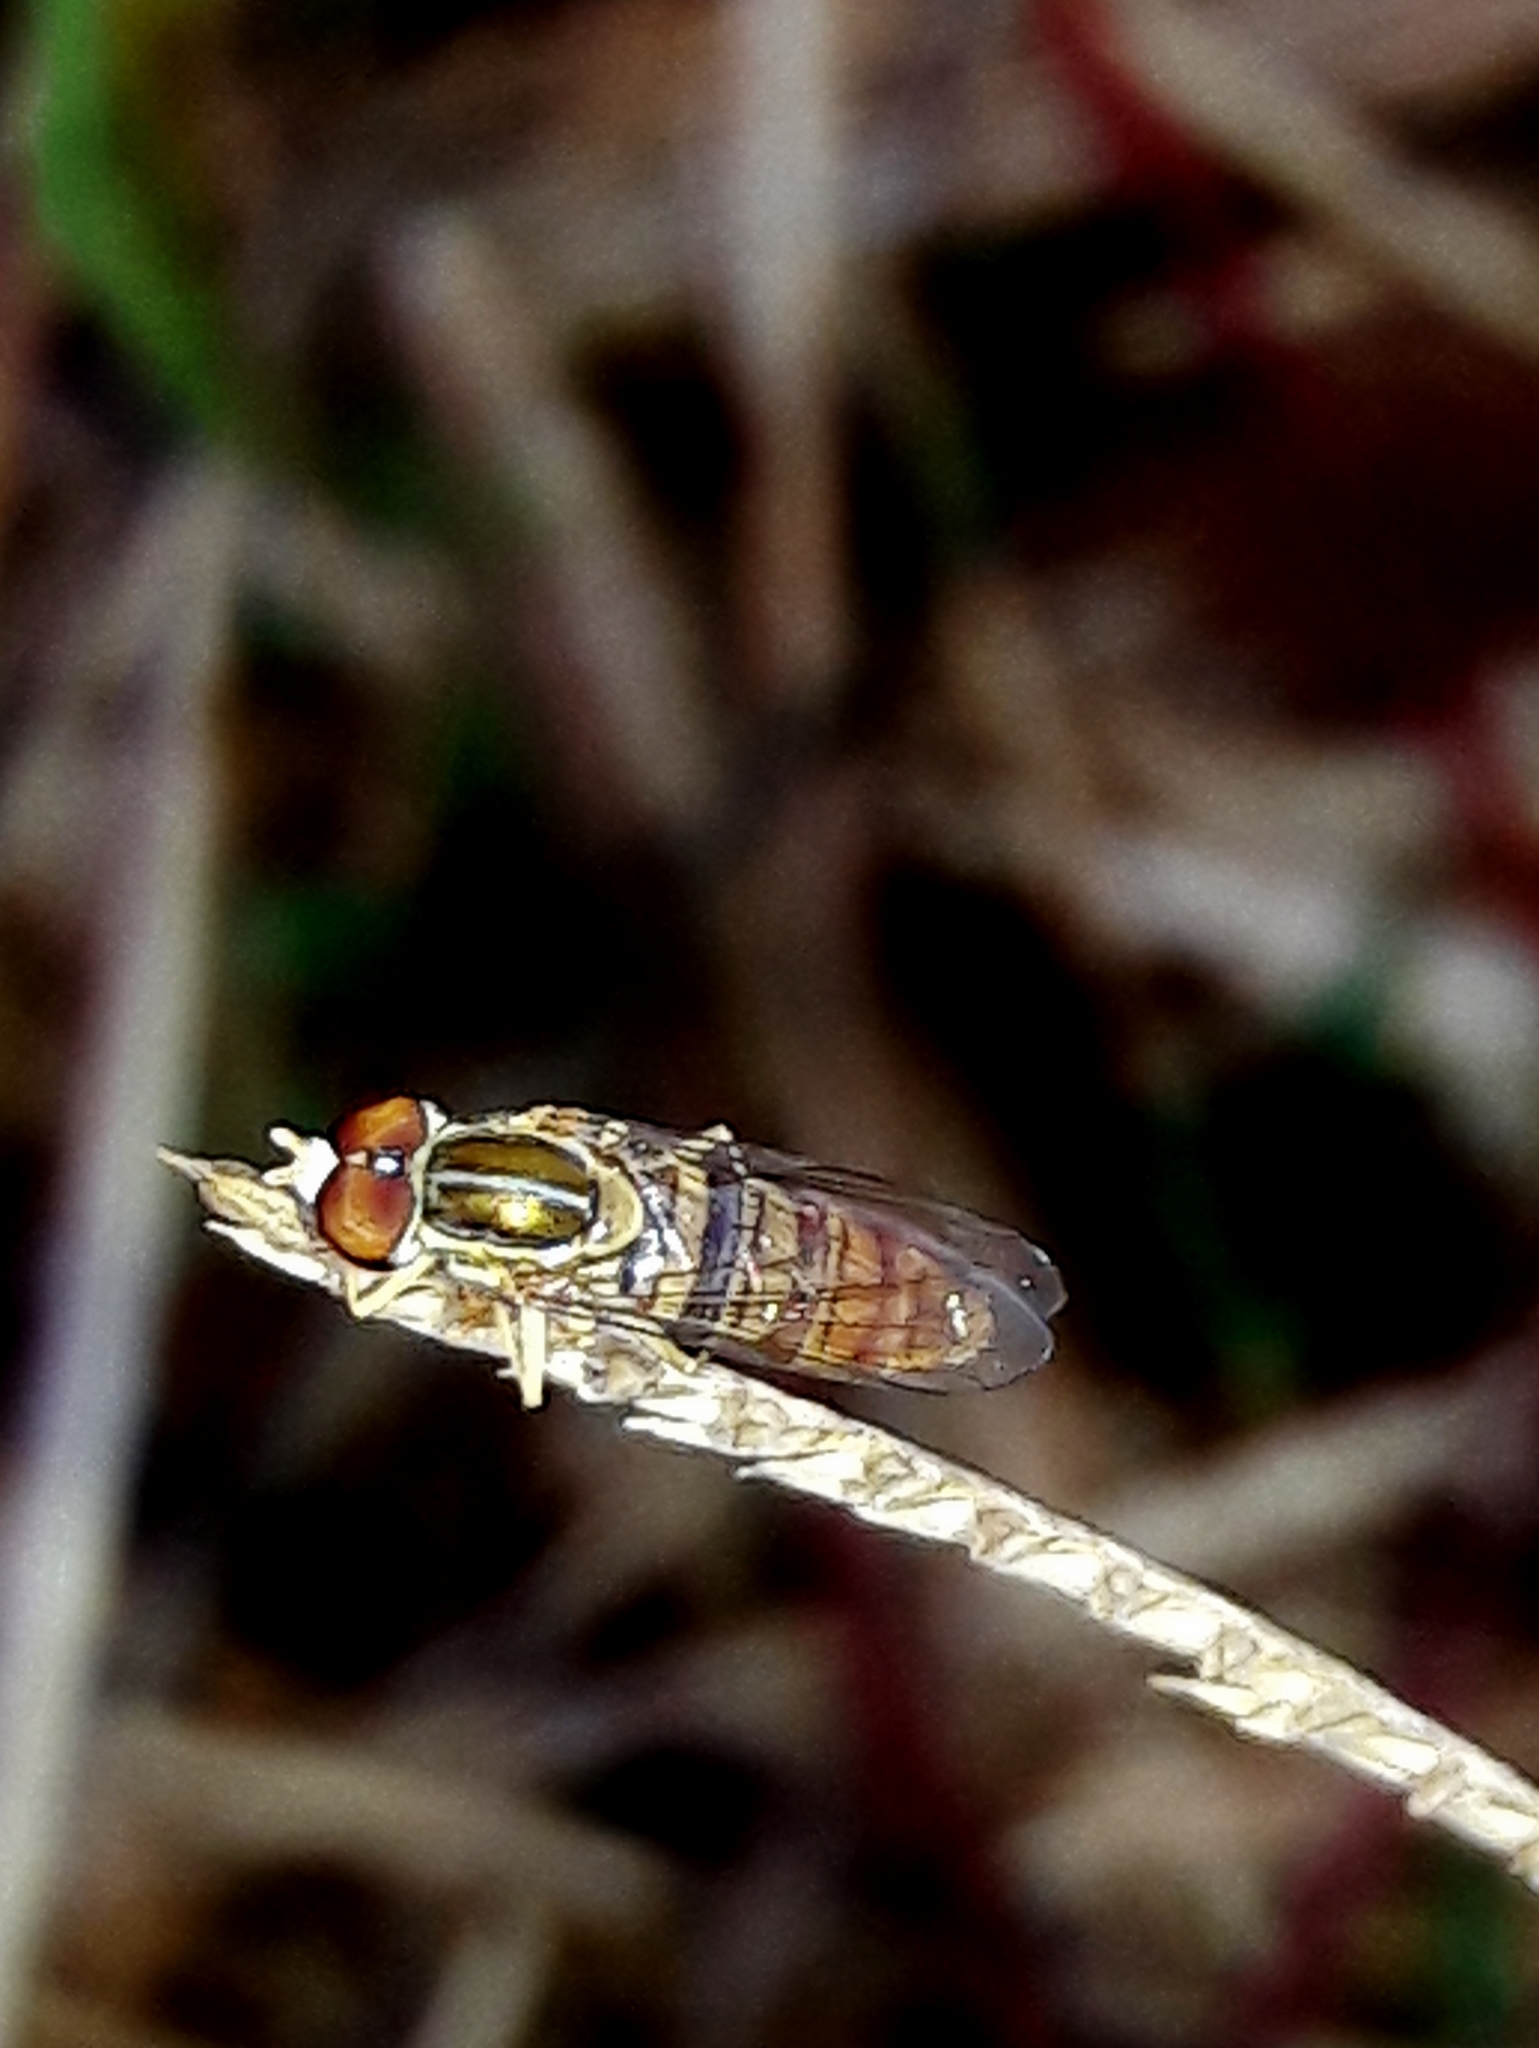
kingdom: Animalia
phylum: Arthropoda
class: Insecta
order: Diptera
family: Syrphidae
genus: Toxomerus
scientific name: Toxomerus politus
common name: Maize calligrapher
